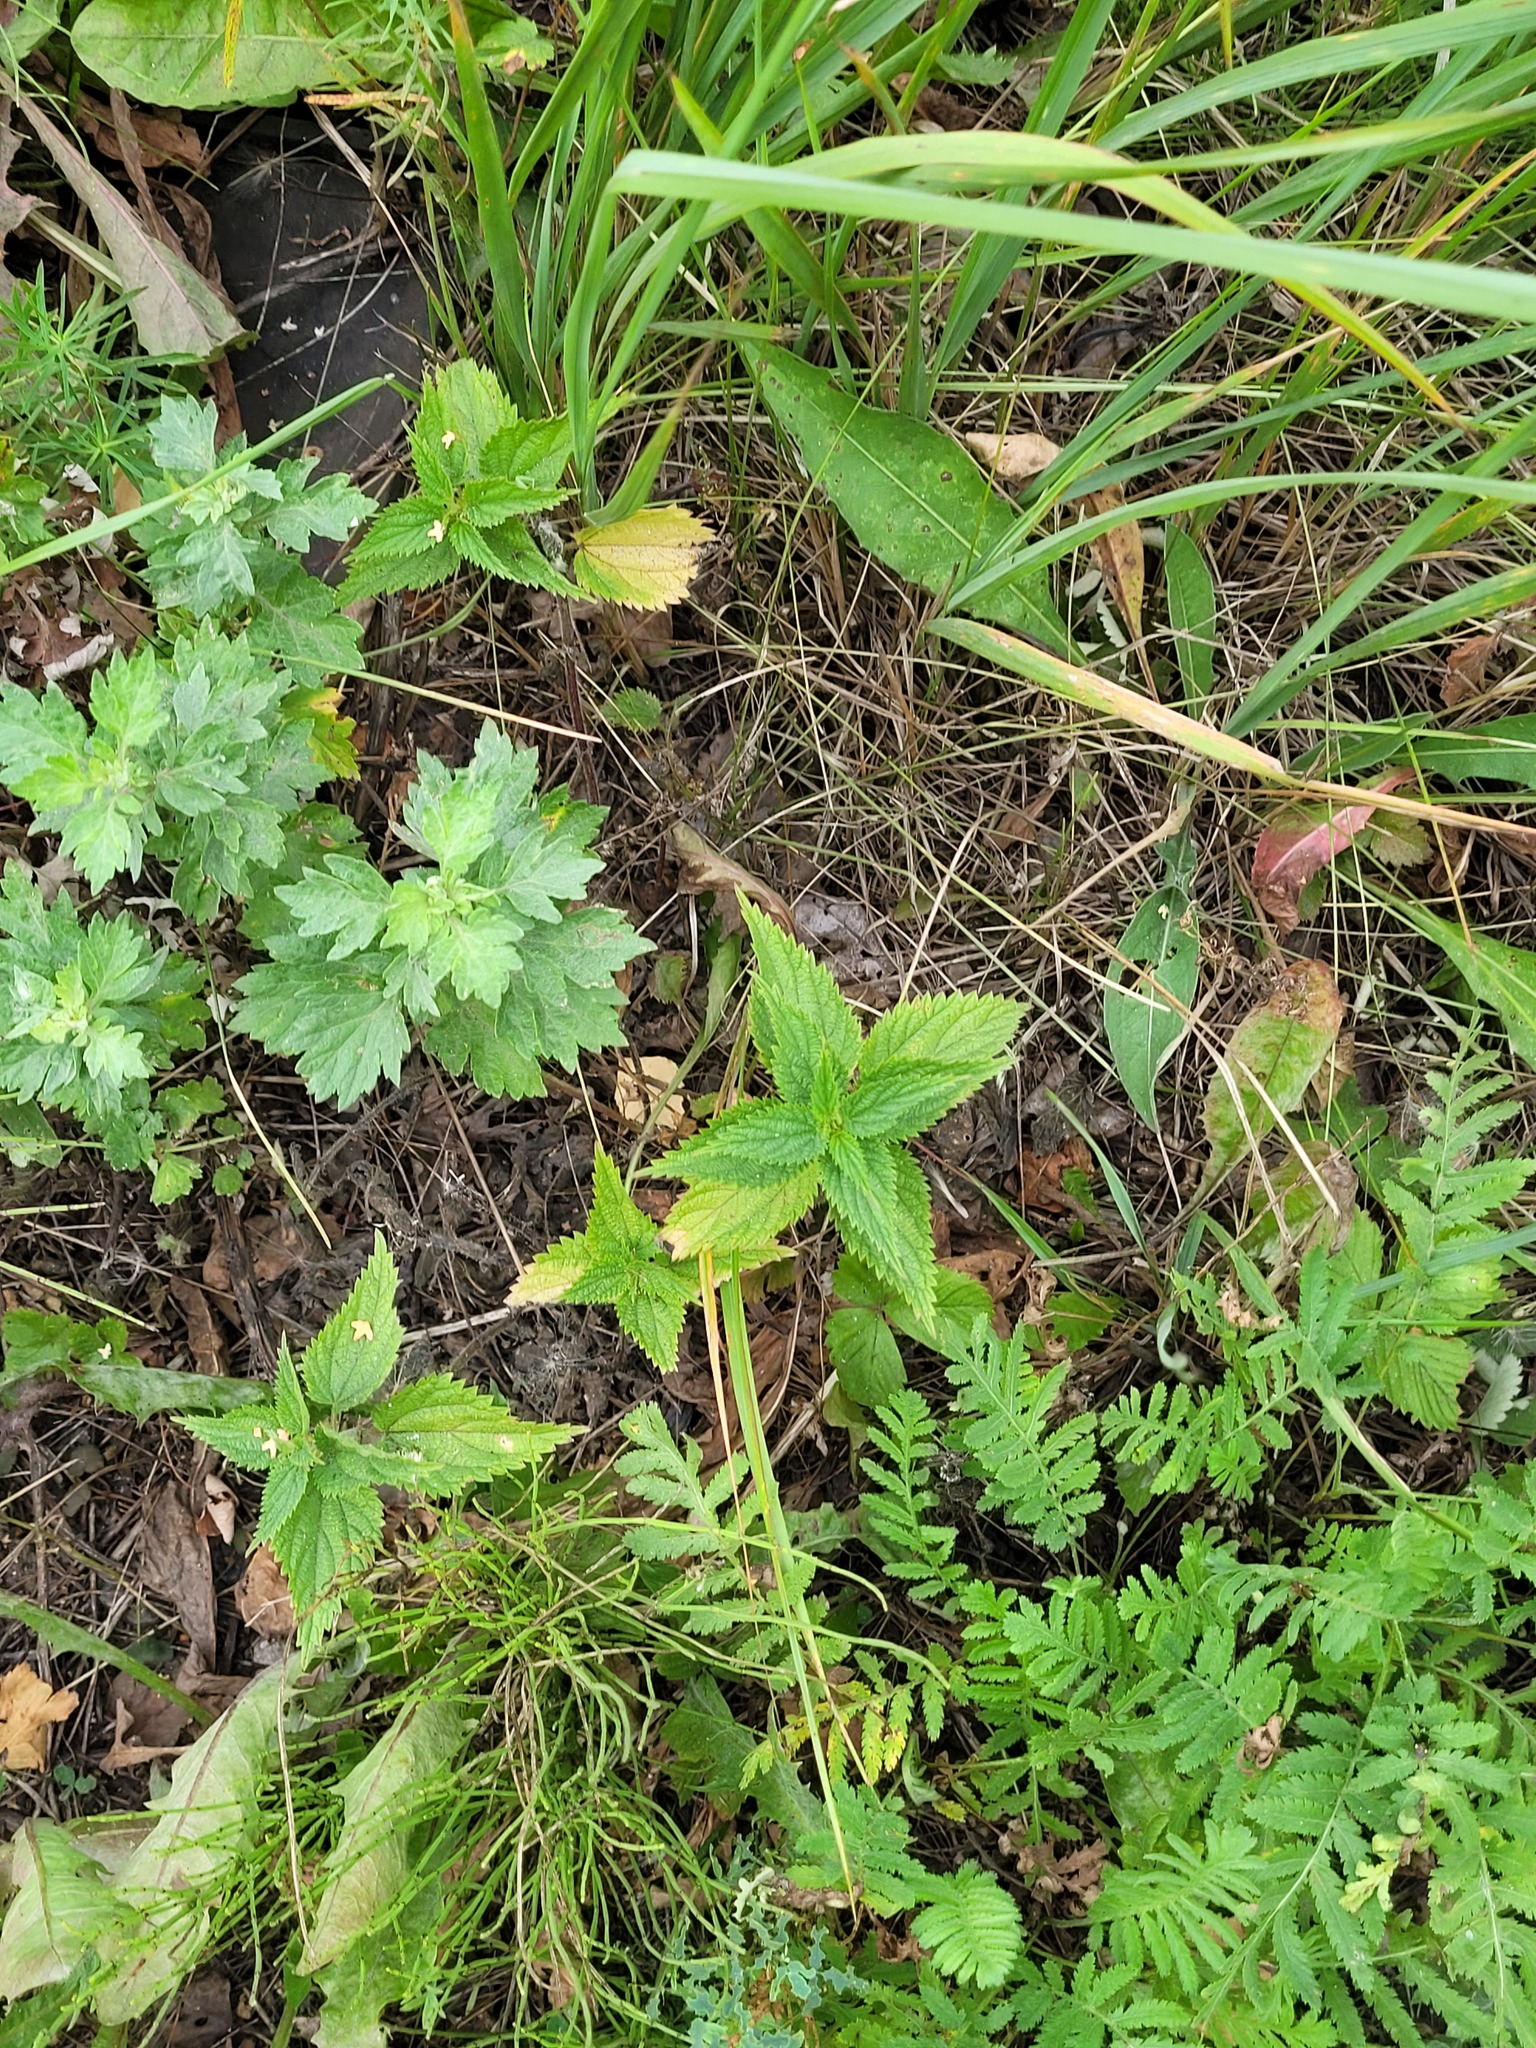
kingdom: Plantae
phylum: Tracheophyta
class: Magnoliopsida
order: Rosales
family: Urticaceae
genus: Urtica
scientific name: Urtica dioica
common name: Common nettle
